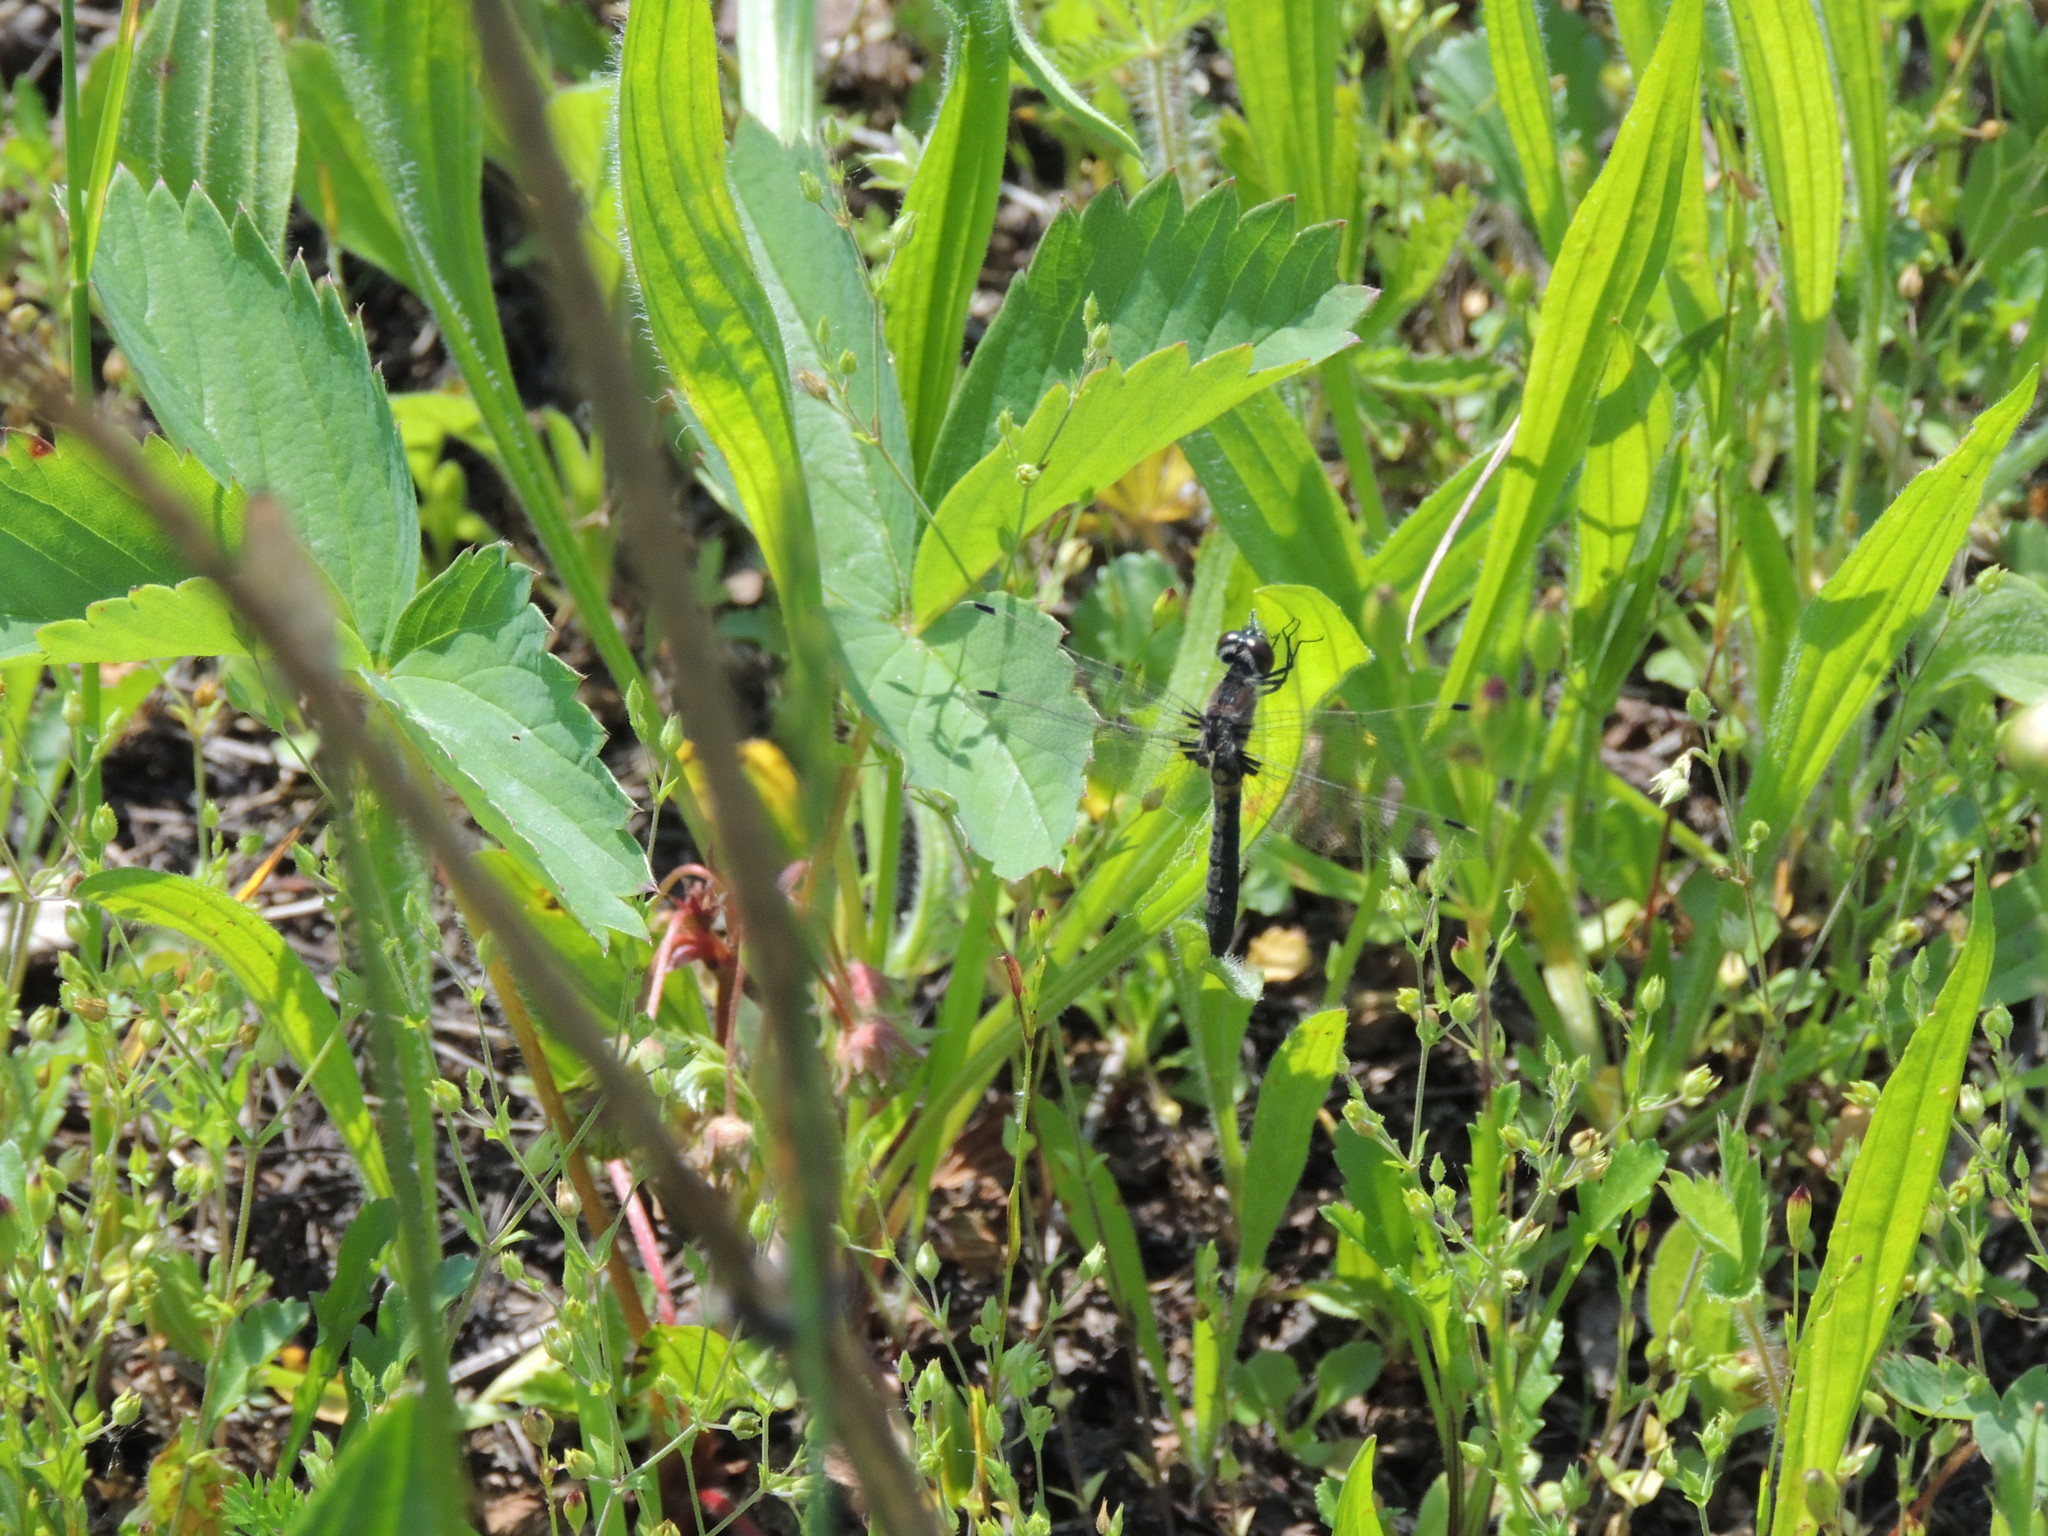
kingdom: Animalia
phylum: Arthropoda
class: Insecta
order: Odonata
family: Libellulidae
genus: Leucorrhinia
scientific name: Leucorrhinia frigida
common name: Frosted whiteface
